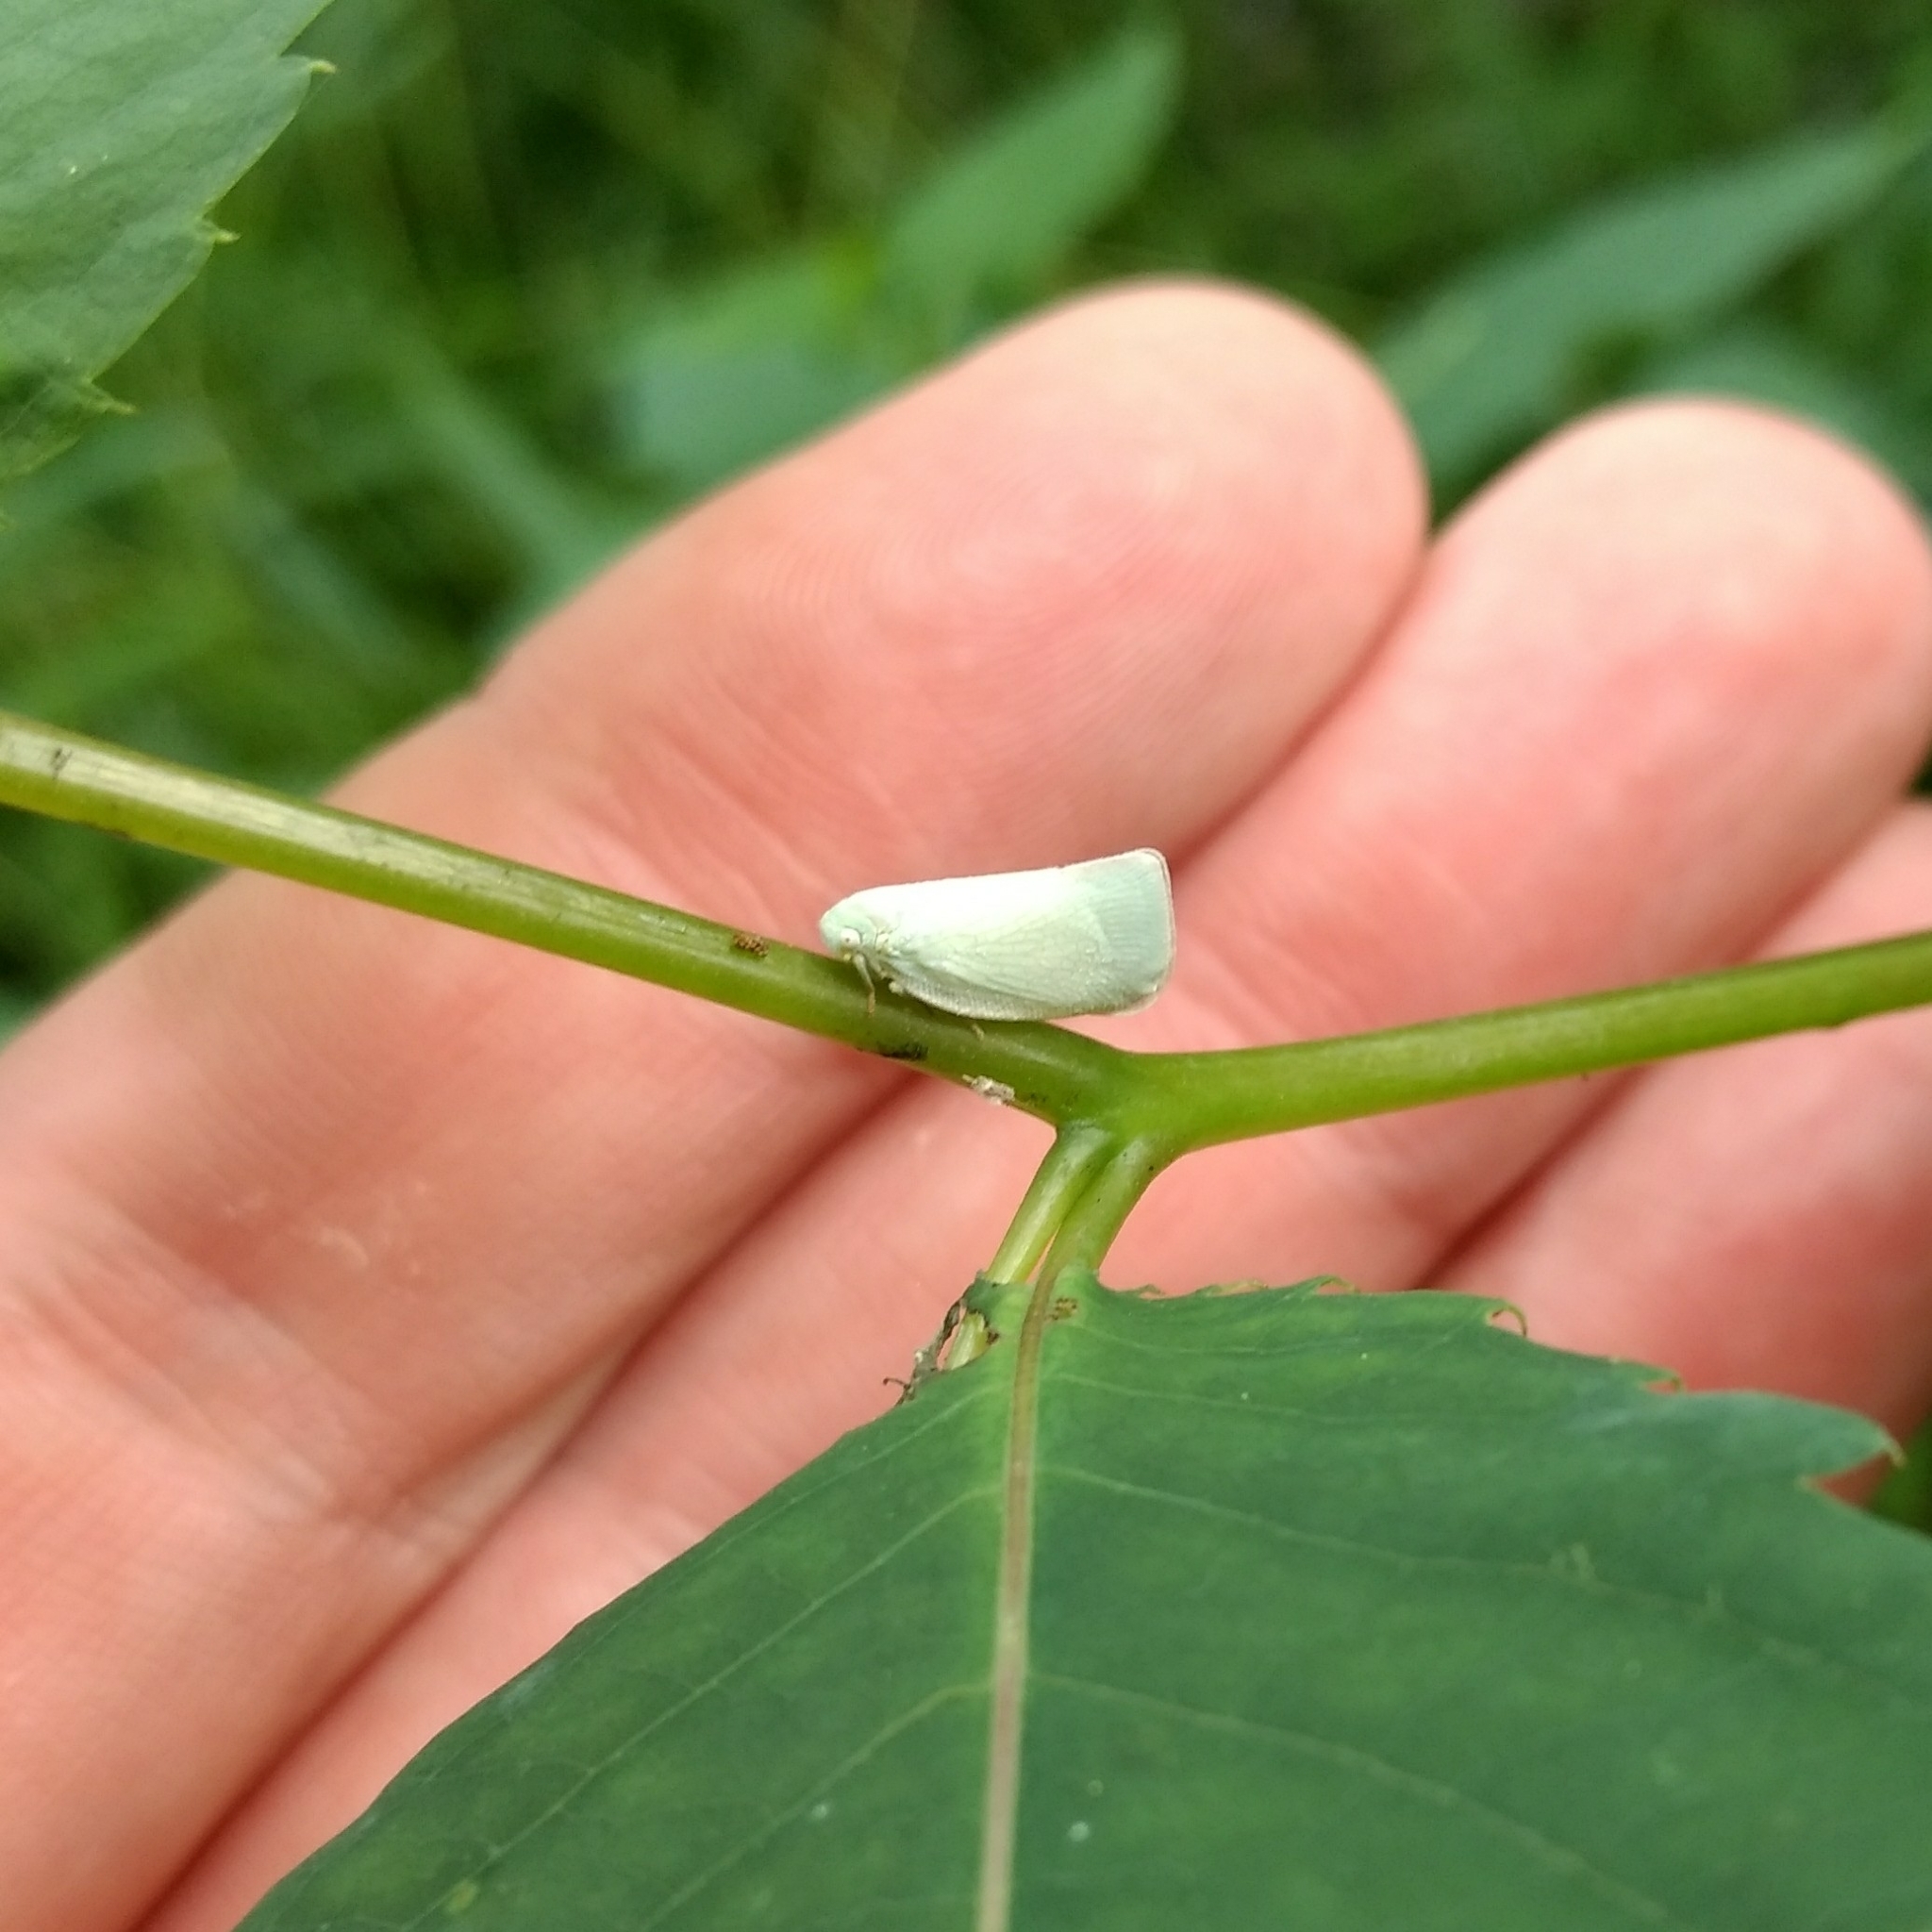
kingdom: Animalia
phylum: Arthropoda
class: Insecta
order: Hemiptera
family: Flatidae
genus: Flatormenis
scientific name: Flatormenis proxima
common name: Northern flatid planthopper
